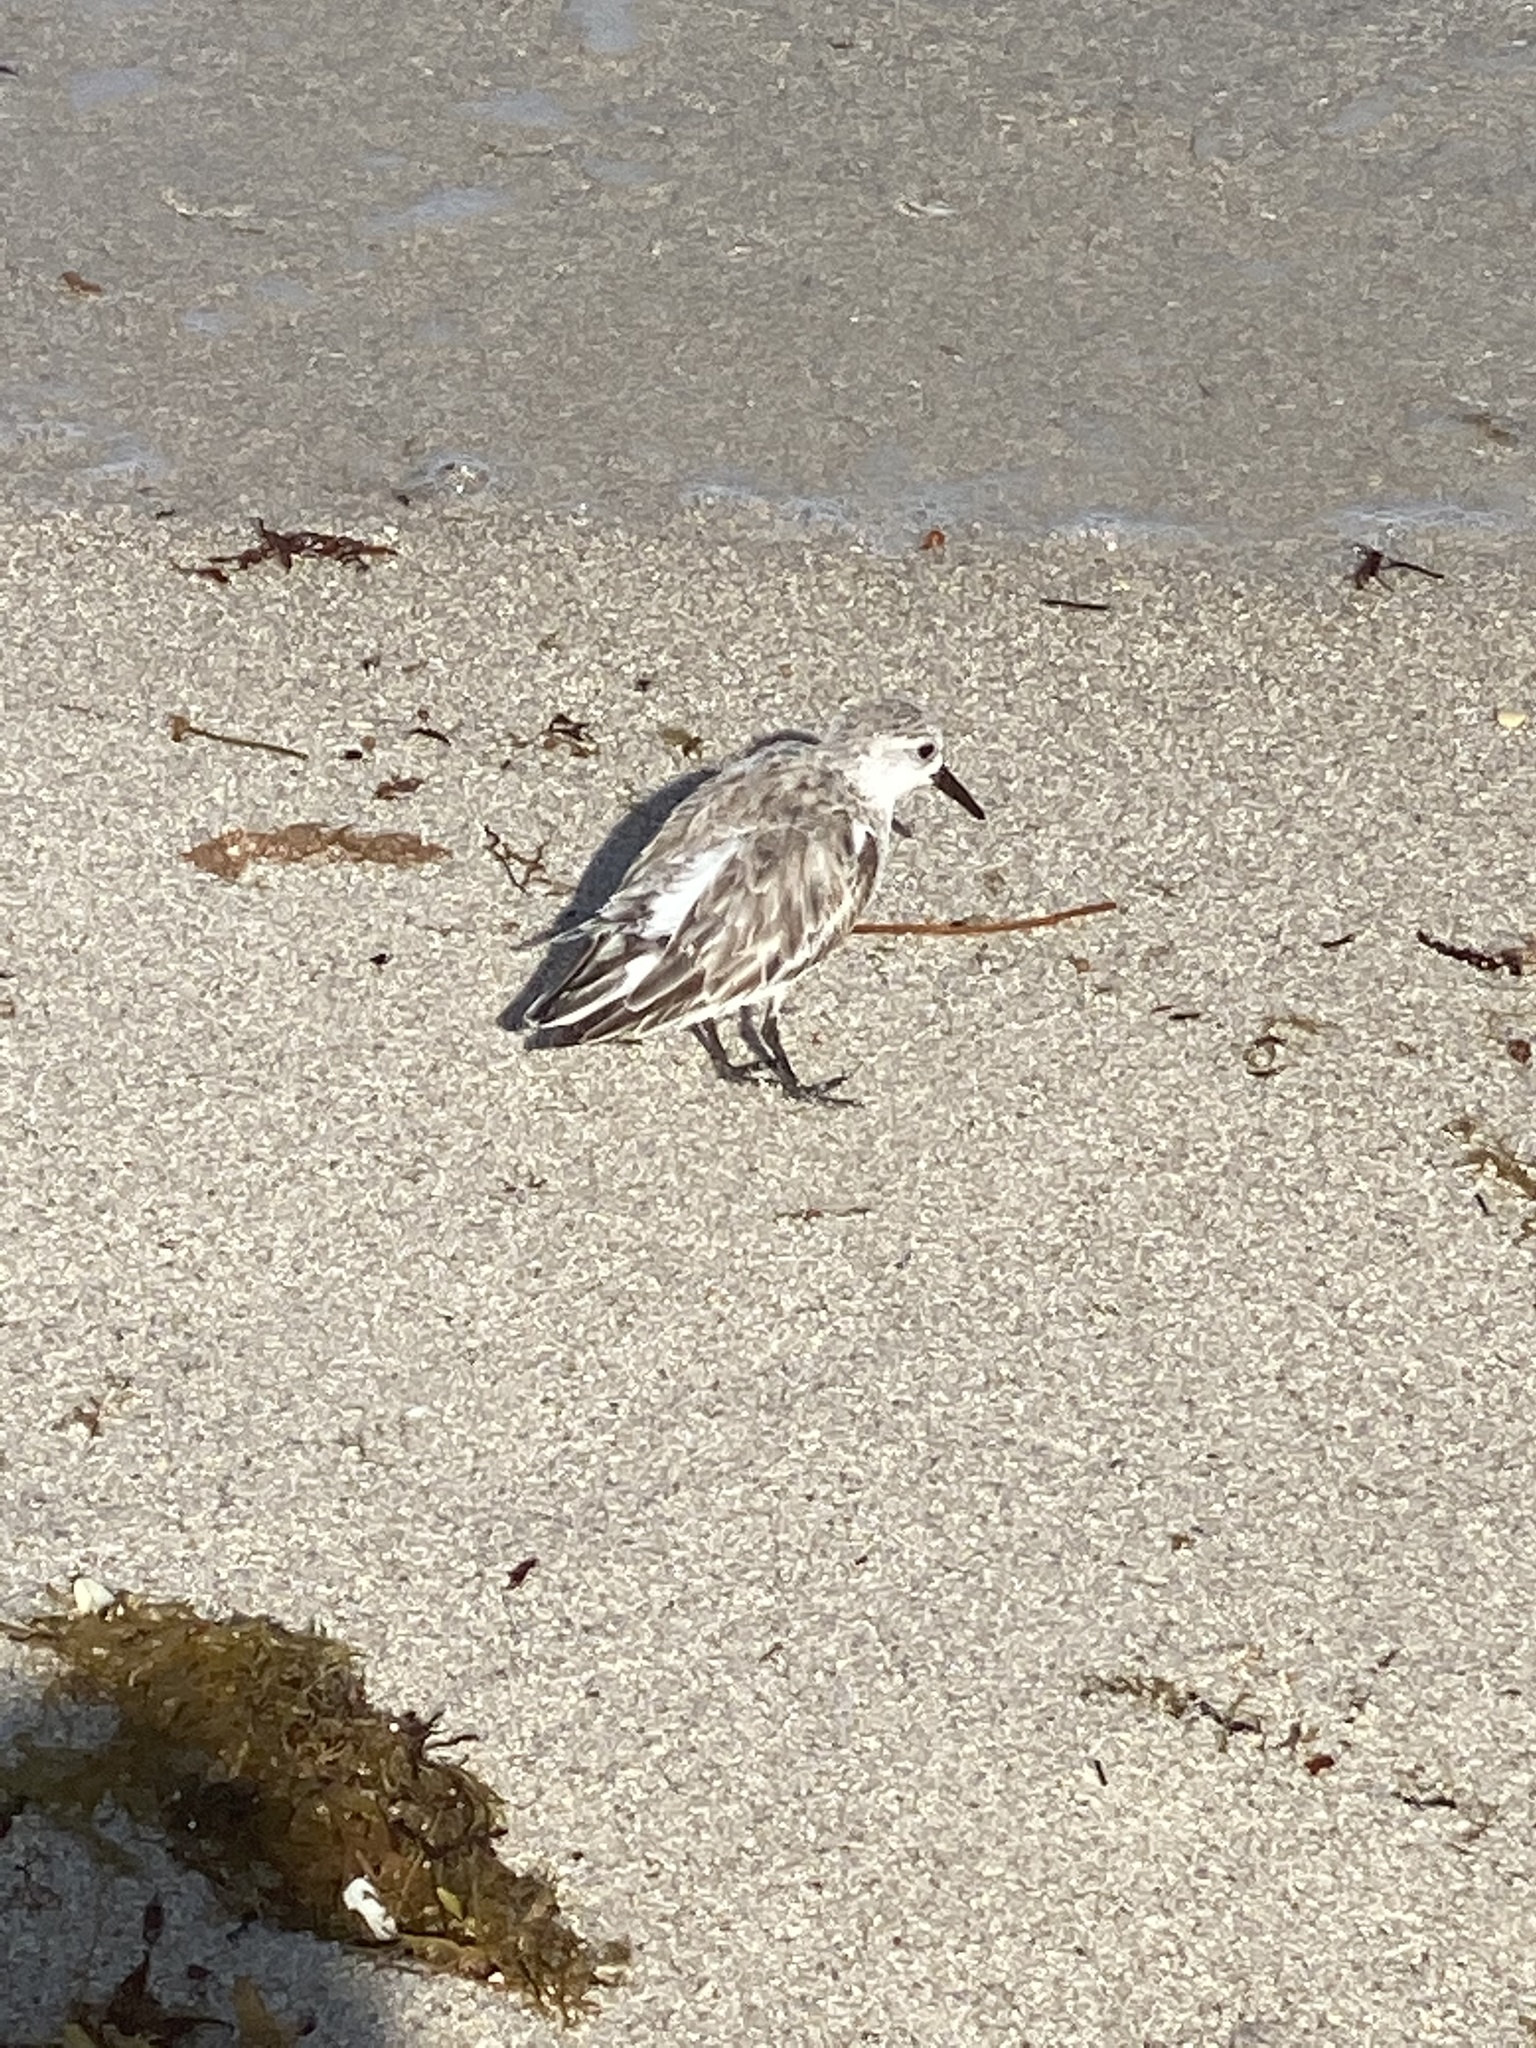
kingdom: Animalia
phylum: Chordata
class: Aves
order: Charadriiformes
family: Scolopacidae
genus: Calidris
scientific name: Calidris alba
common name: Sanderling
